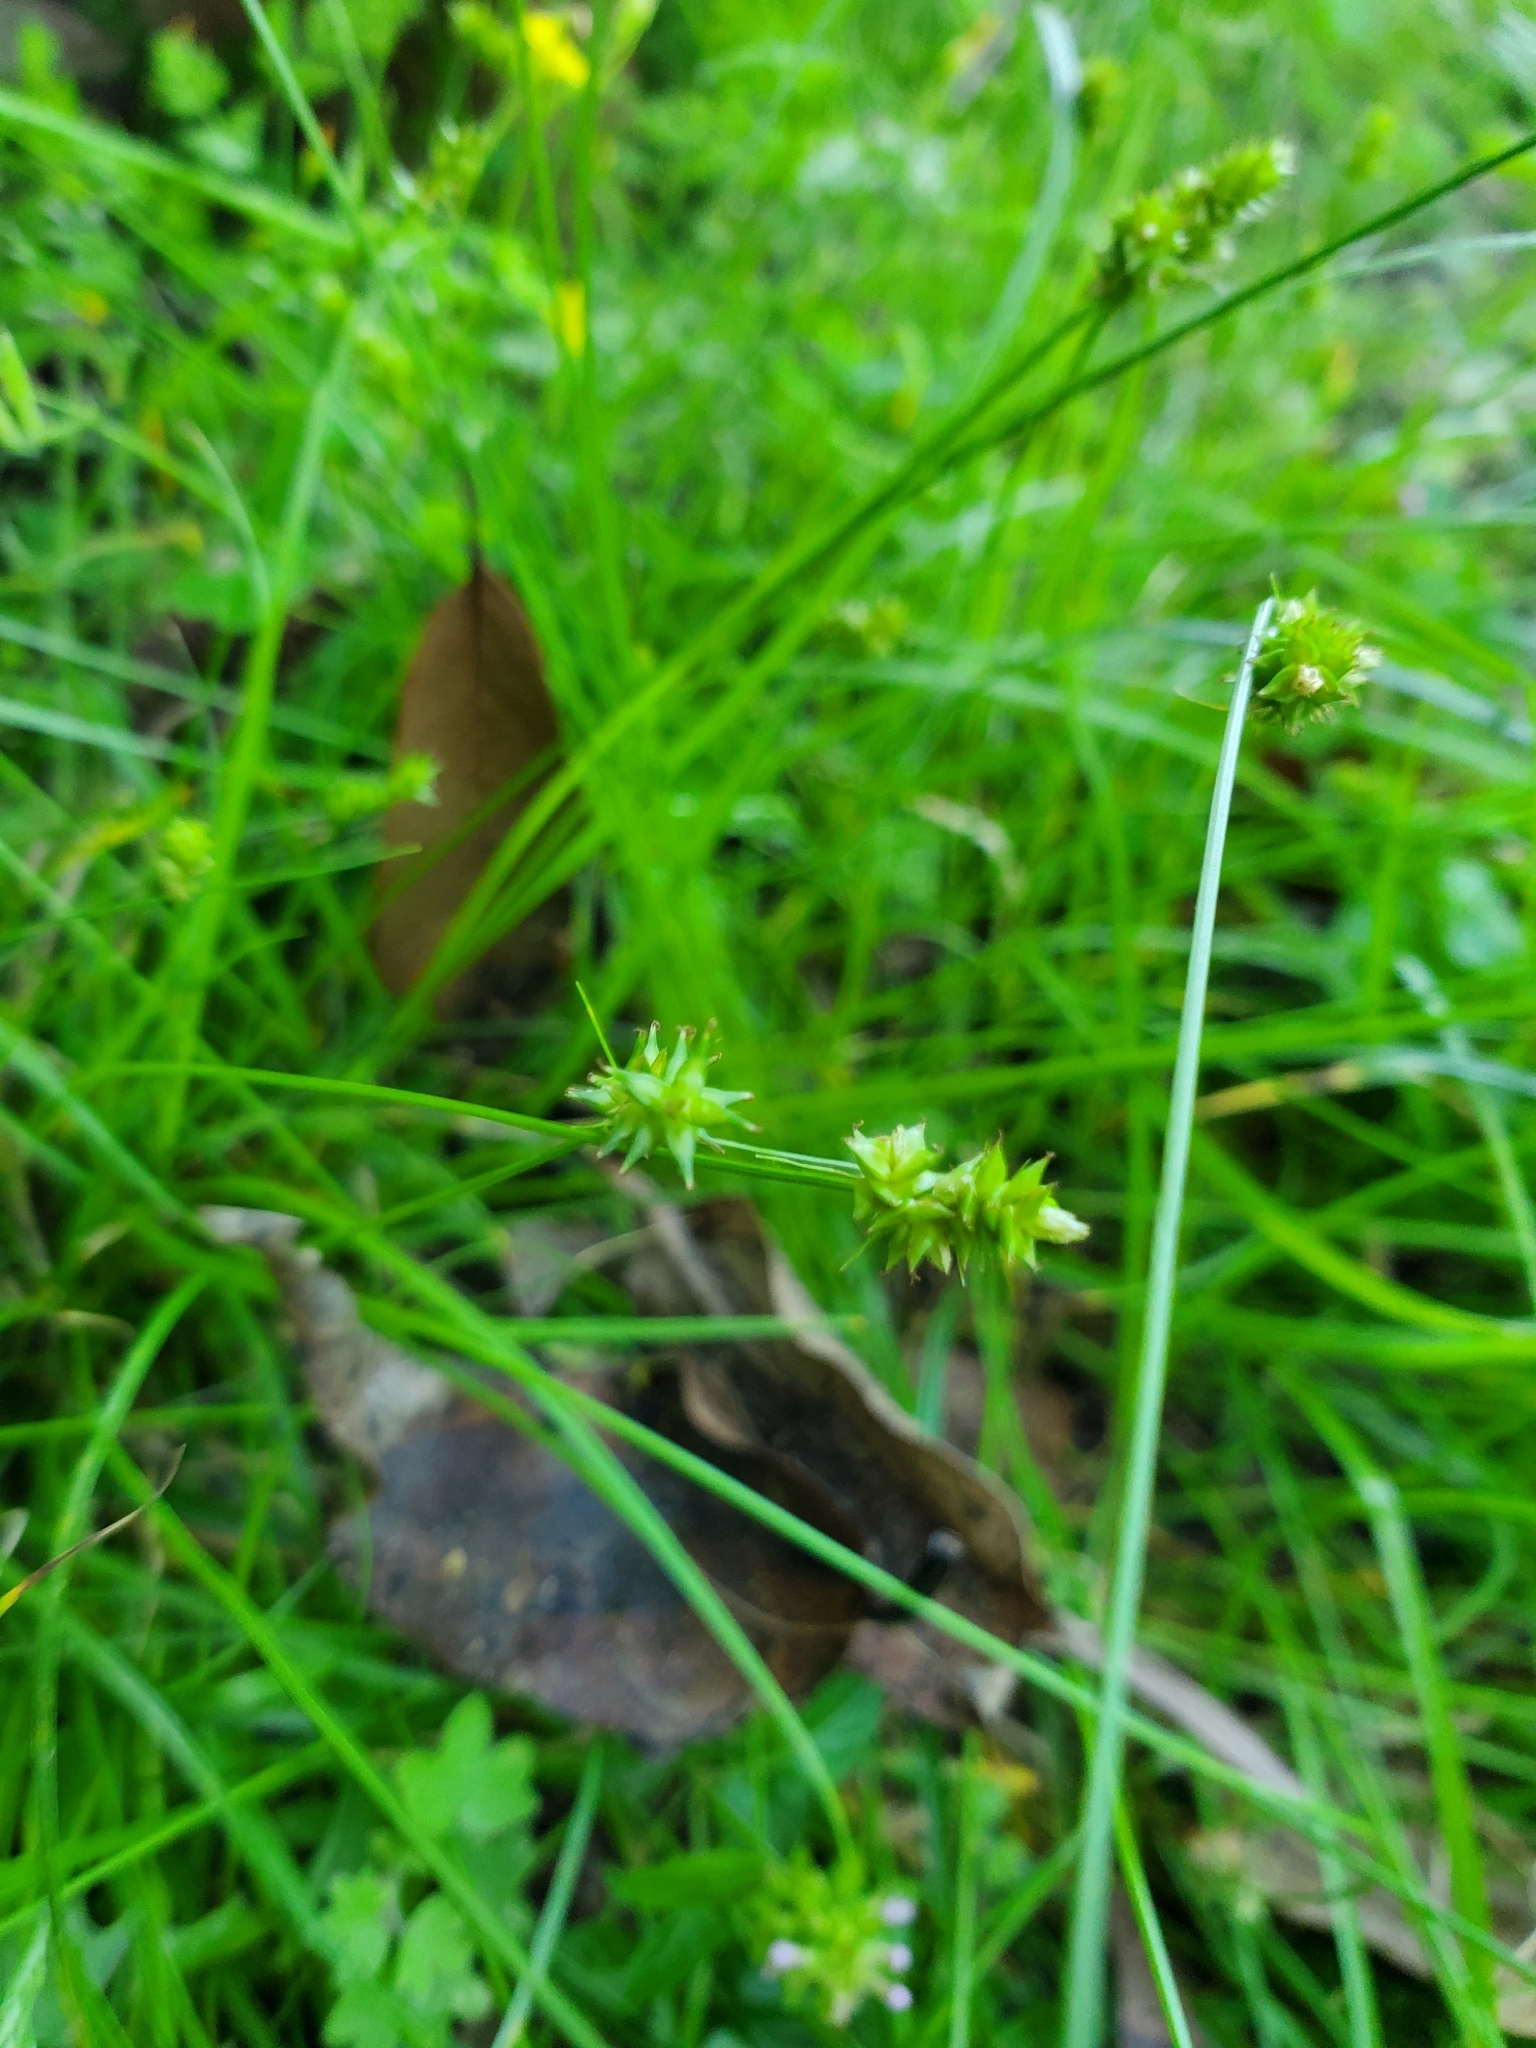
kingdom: Plantae
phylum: Tracheophyta
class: Liliopsida
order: Poales
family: Cyperaceae
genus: Carex
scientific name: Carex texensis
